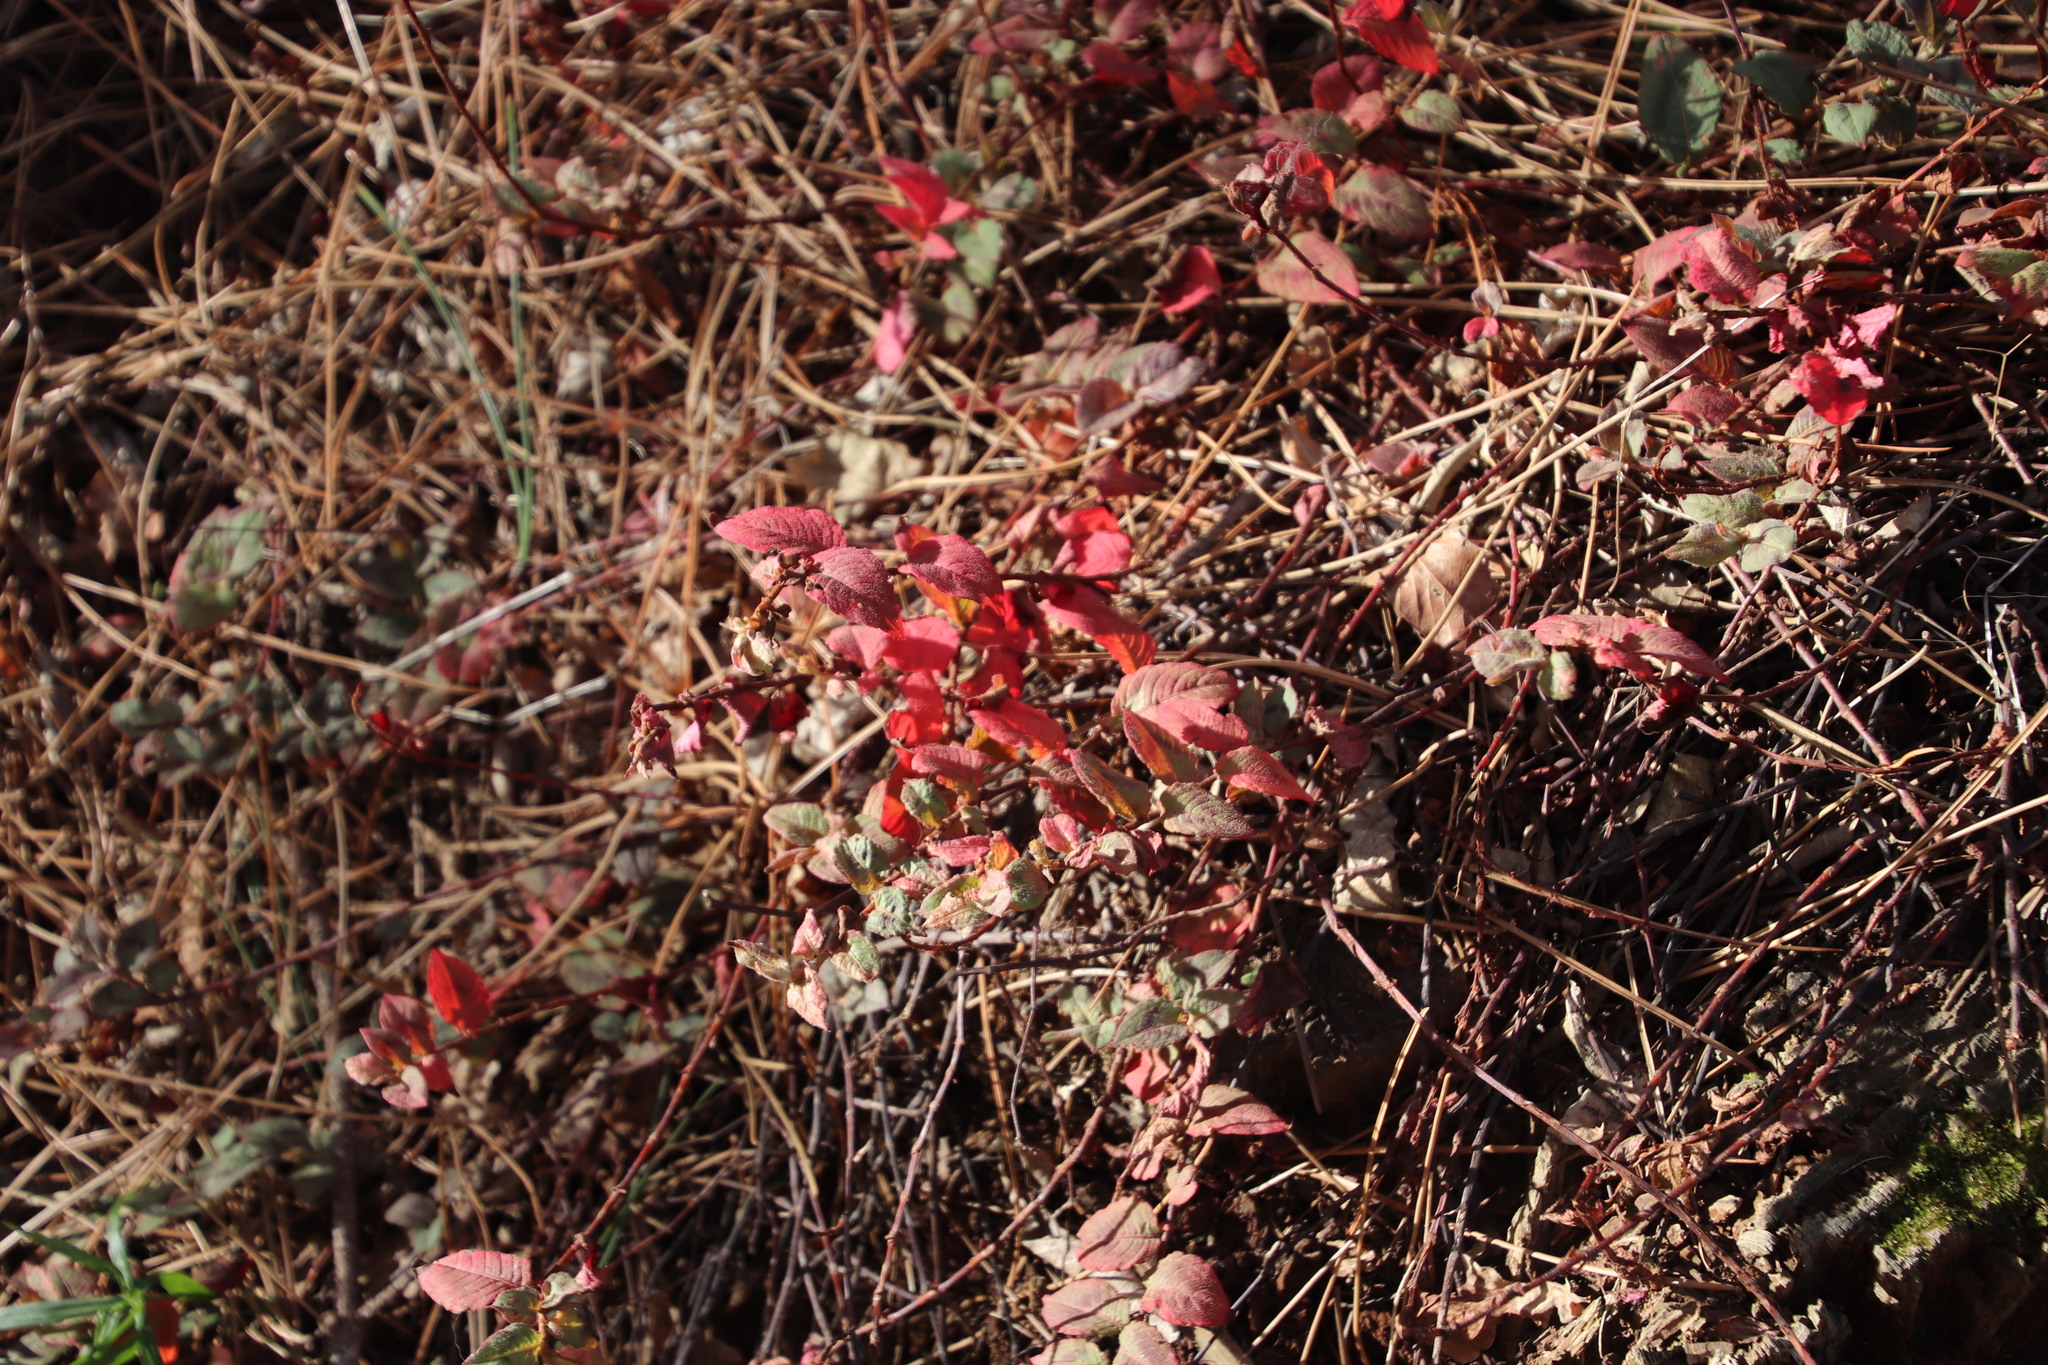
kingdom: Plantae
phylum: Tracheophyta
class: Magnoliopsida
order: Caryophyllales
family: Polygonaceae
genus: Persicaria
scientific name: Persicaria capitata
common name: Pinkhead smartweed
